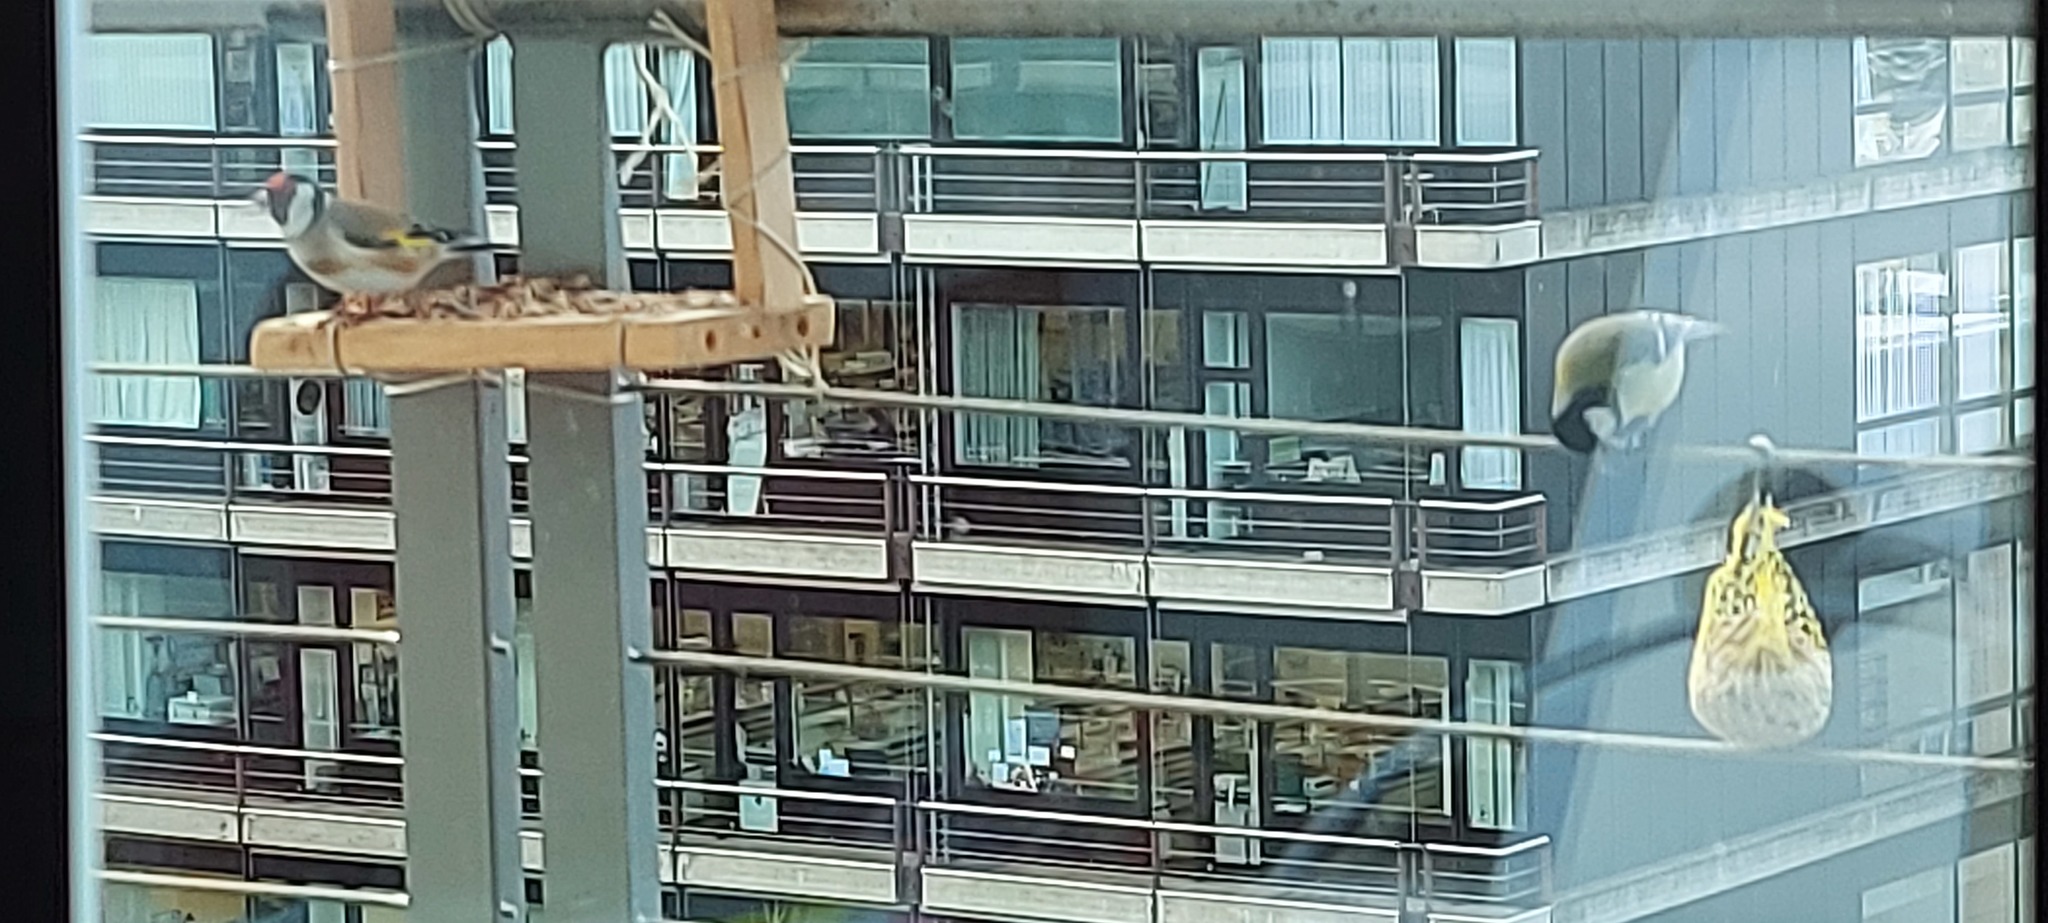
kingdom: Animalia
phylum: Chordata
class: Aves
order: Passeriformes
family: Fringillidae
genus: Carduelis
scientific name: Carduelis carduelis
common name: European goldfinch
